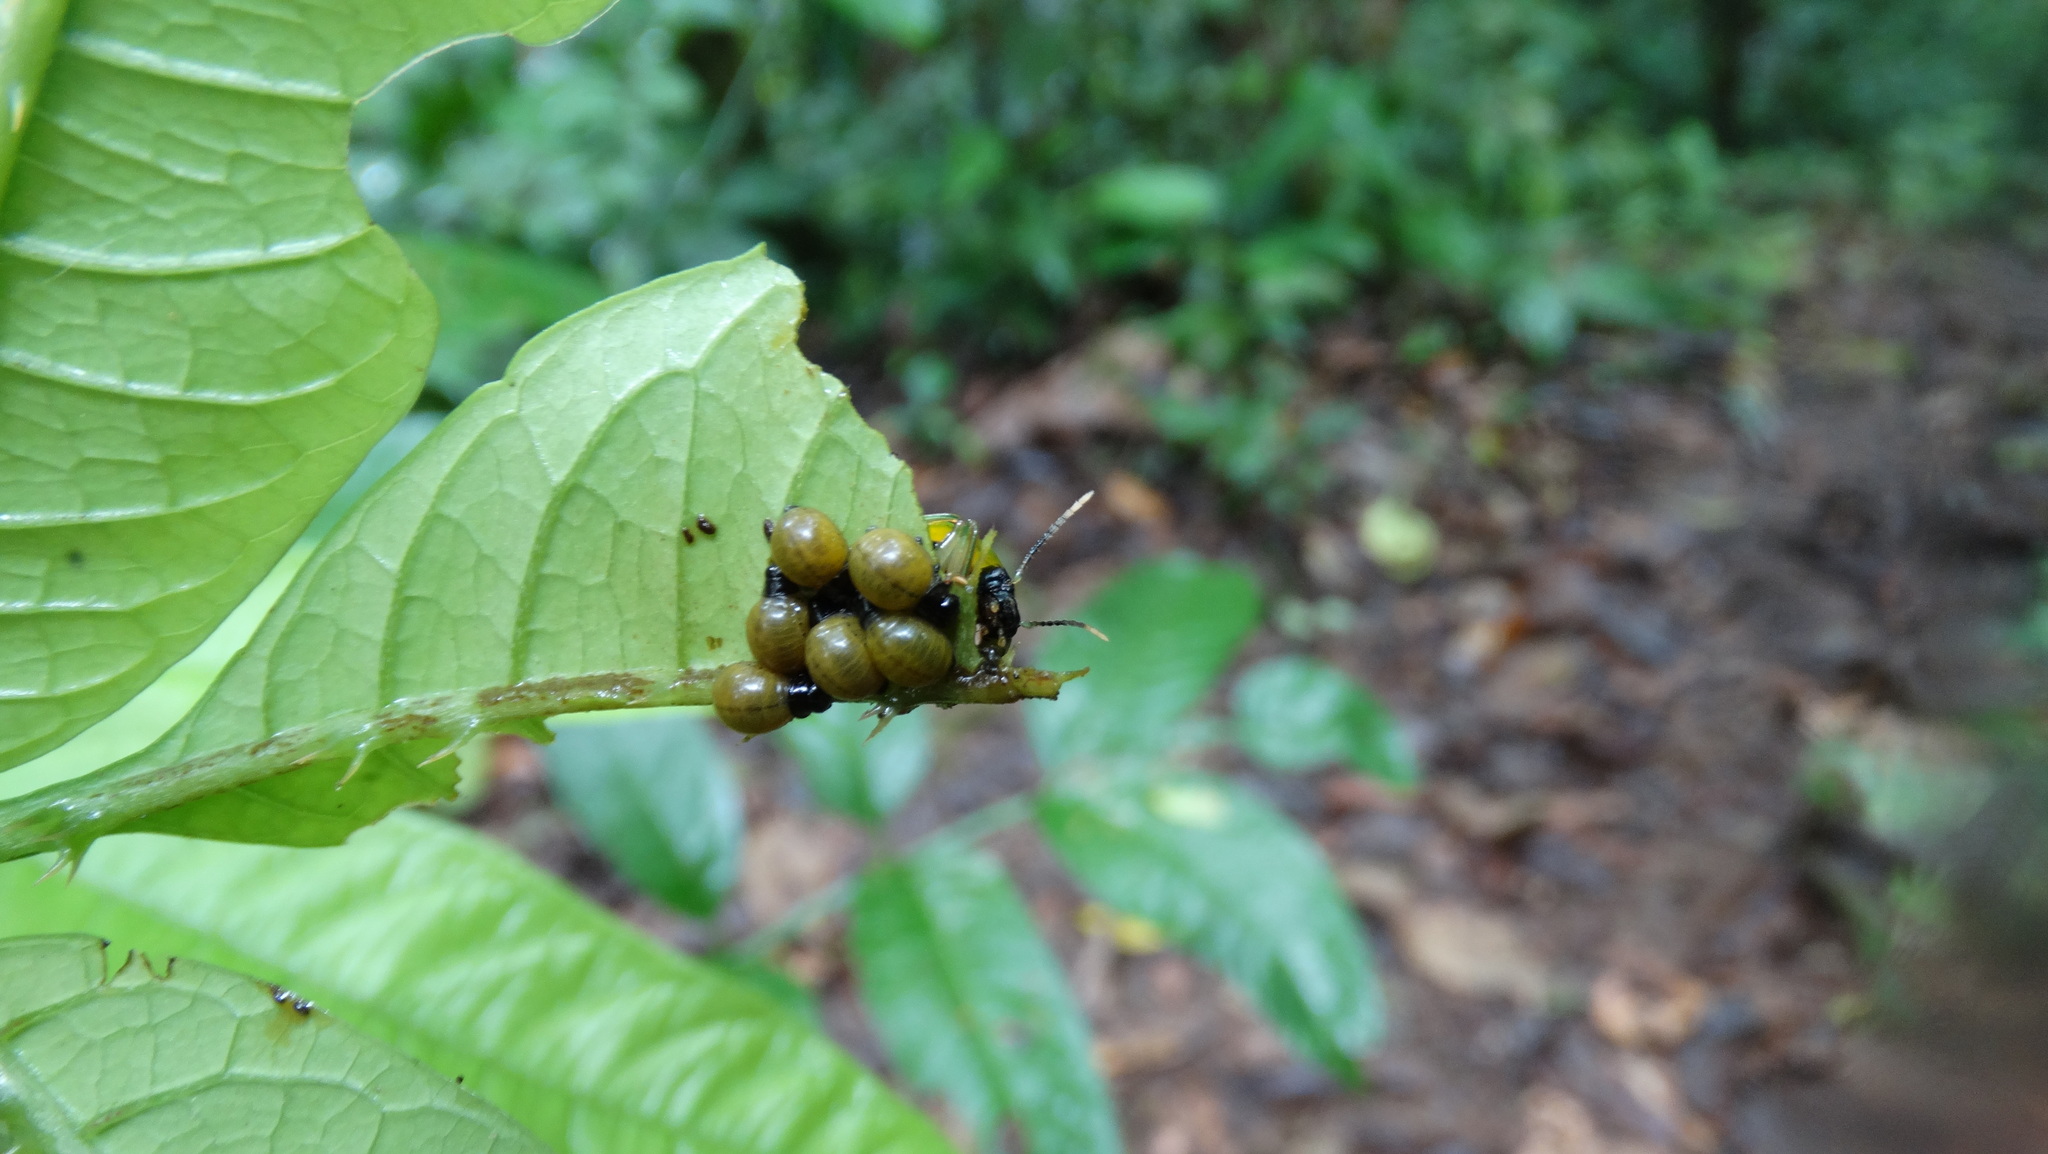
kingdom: Animalia
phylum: Arthropoda
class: Insecta
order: Coleoptera
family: Chrysomelidae
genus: Proseicela
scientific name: Proseicela
